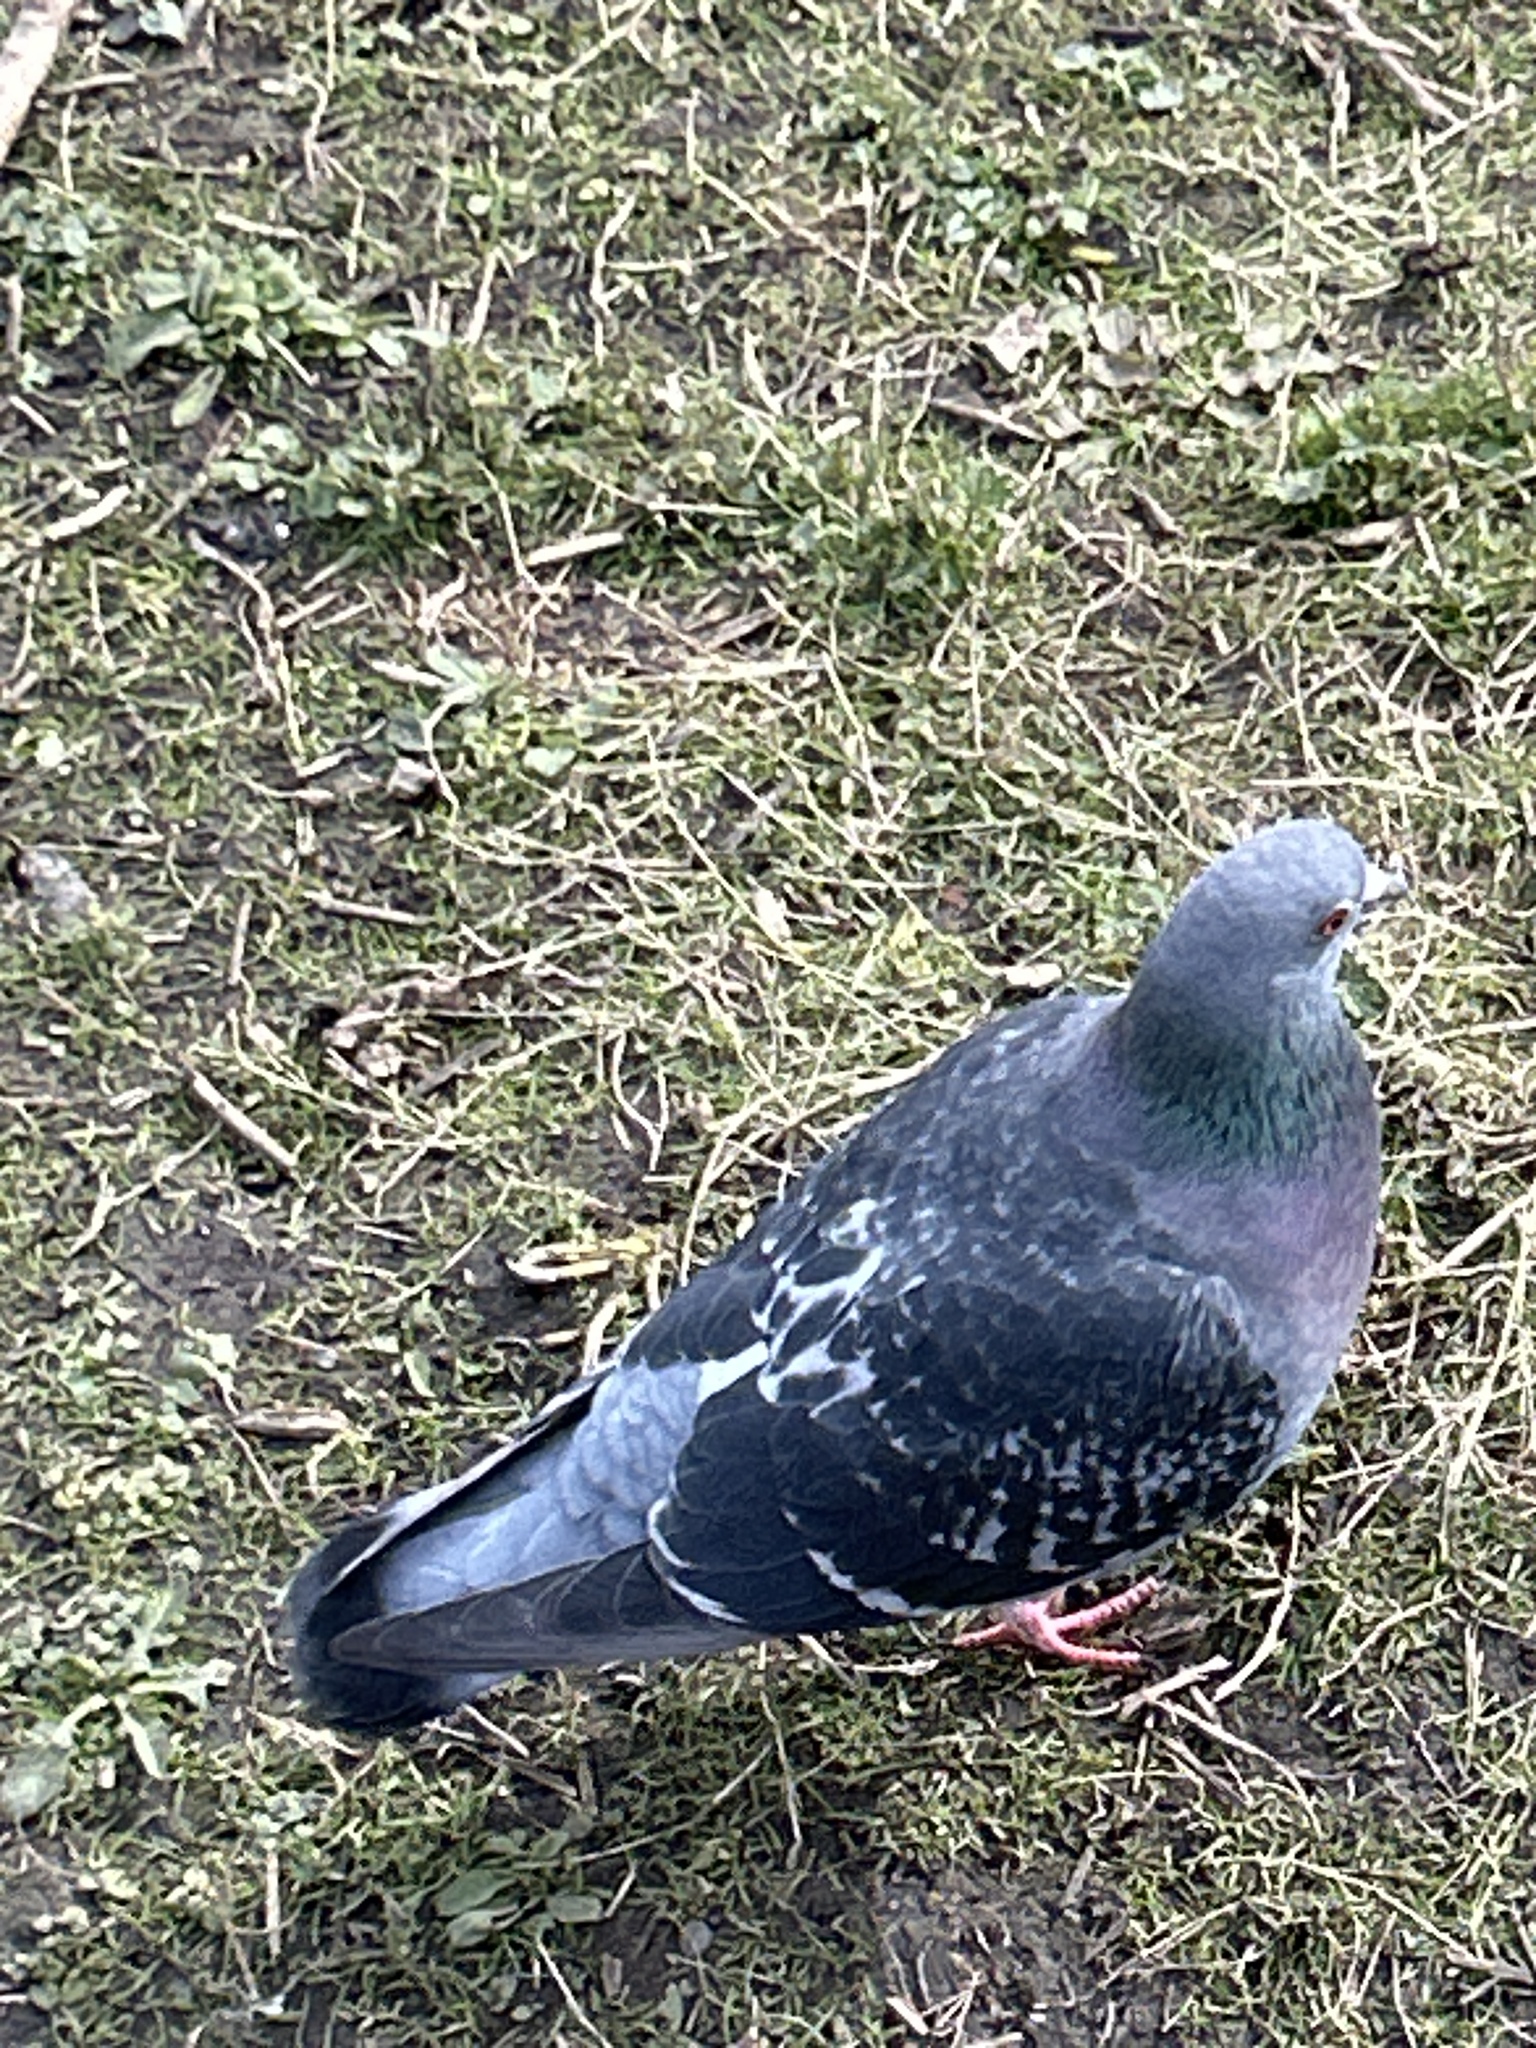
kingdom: Animalia
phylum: Chordata
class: Aves
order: Columbiformes
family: Columbidae
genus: Columba
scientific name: Columba livia
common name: Rock pigeon
